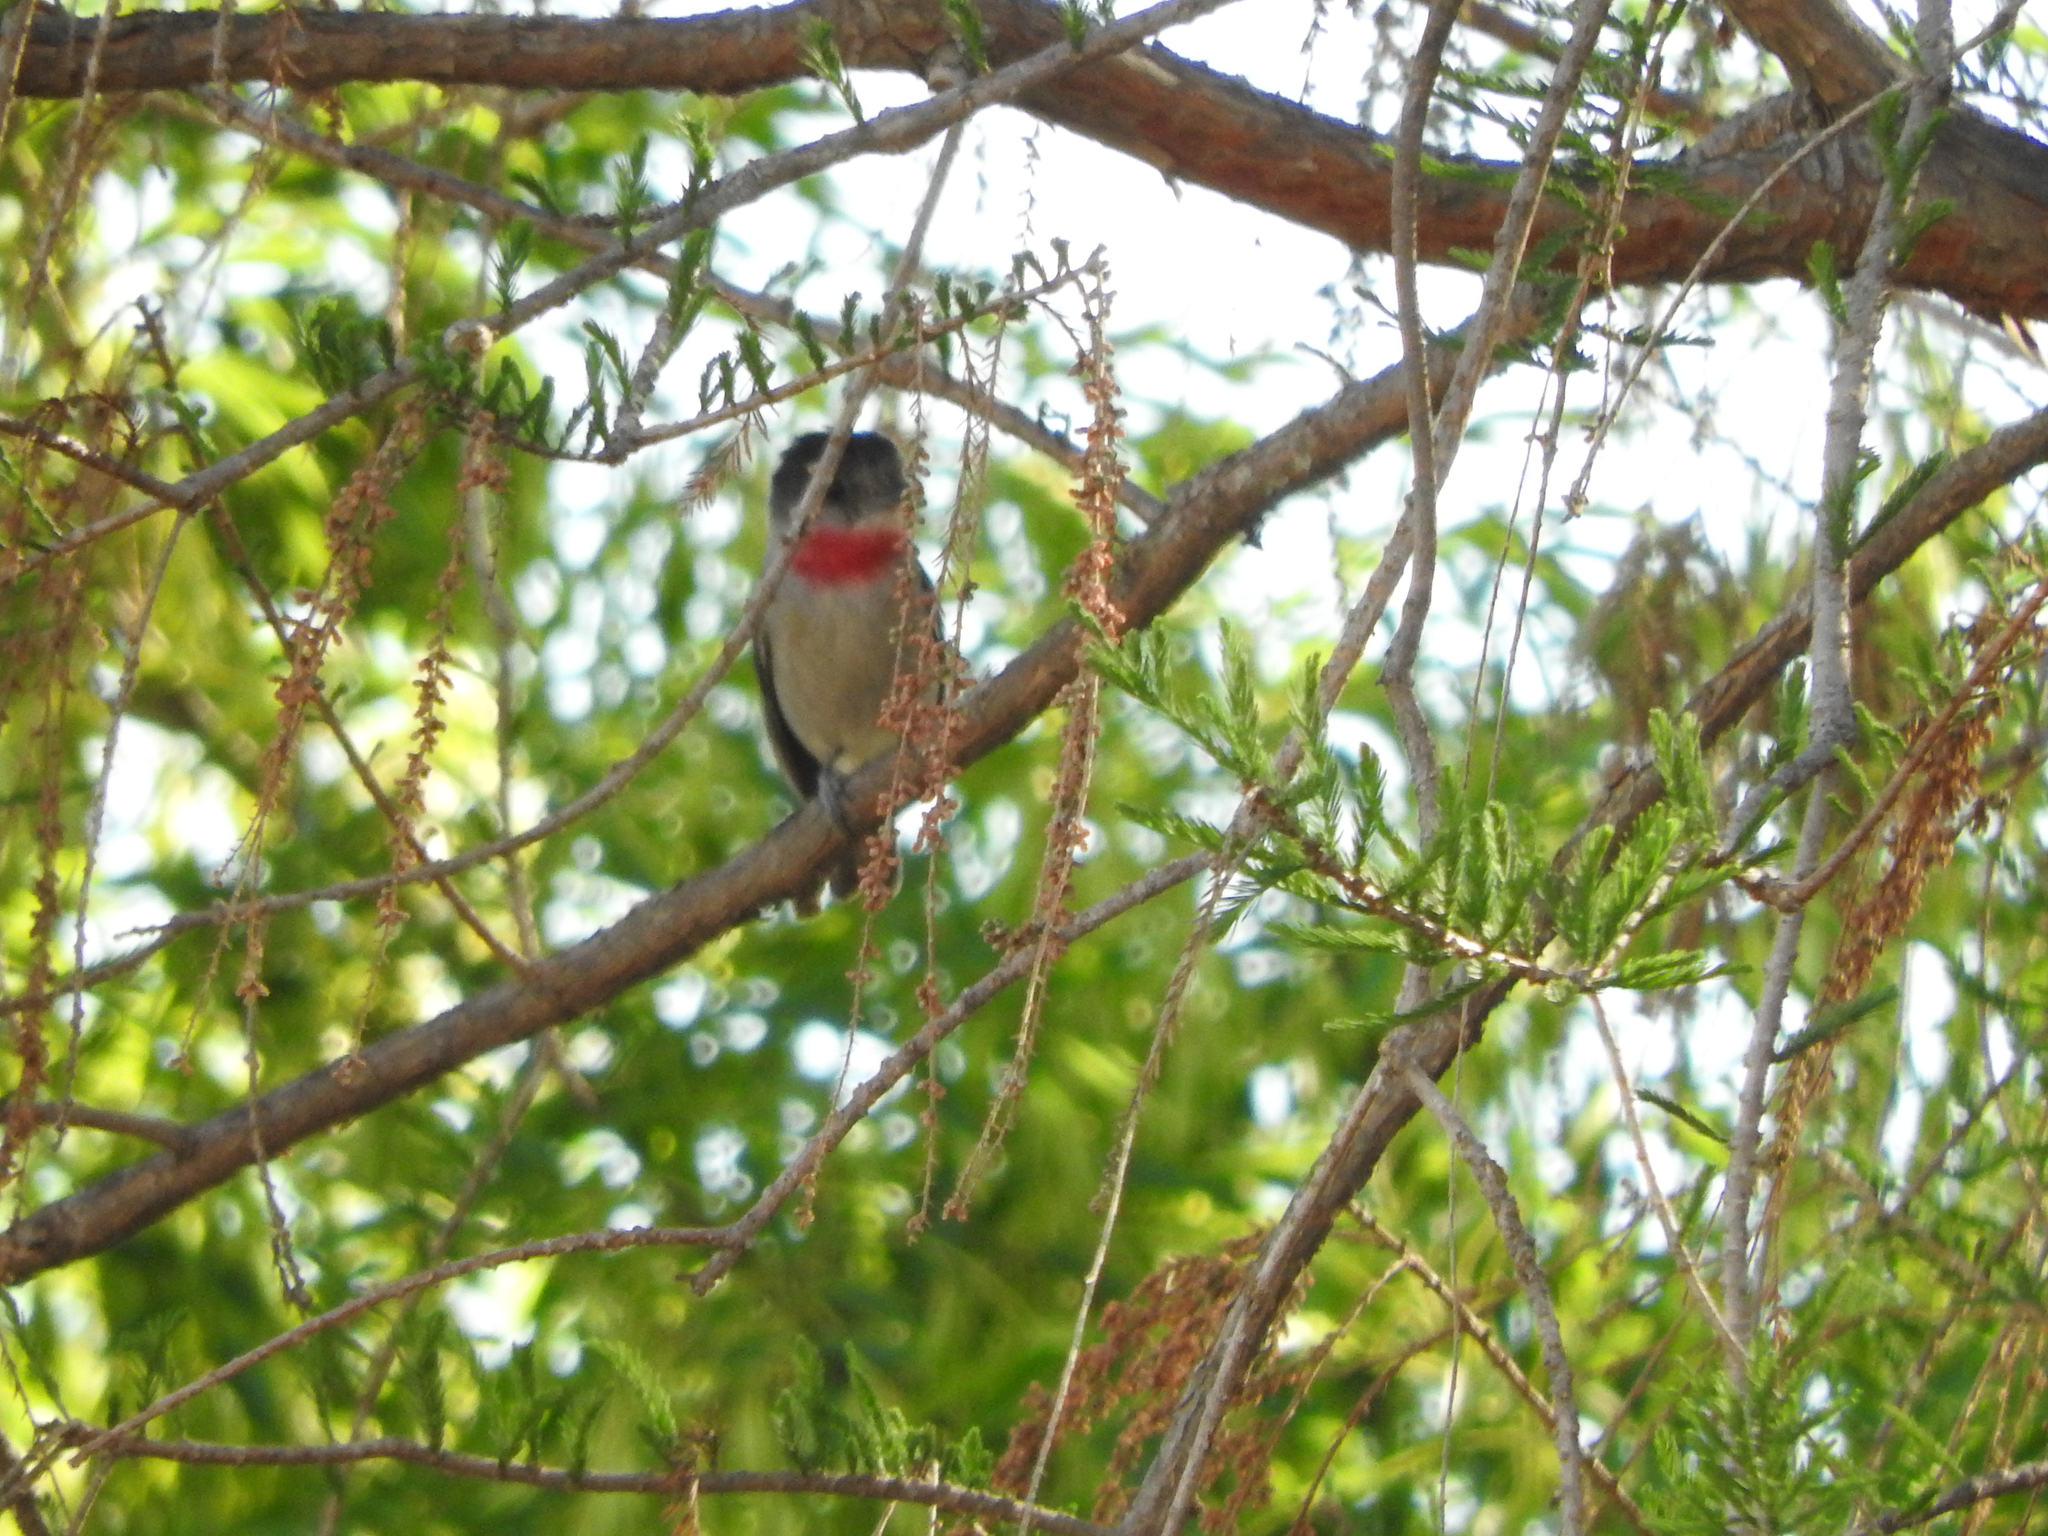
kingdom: Animalia
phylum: Chordata
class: Aves
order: Passeriformes
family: Cotingidae
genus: Pachyramphus
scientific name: Pachyramphus aglaiae
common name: Rose-throated becard
